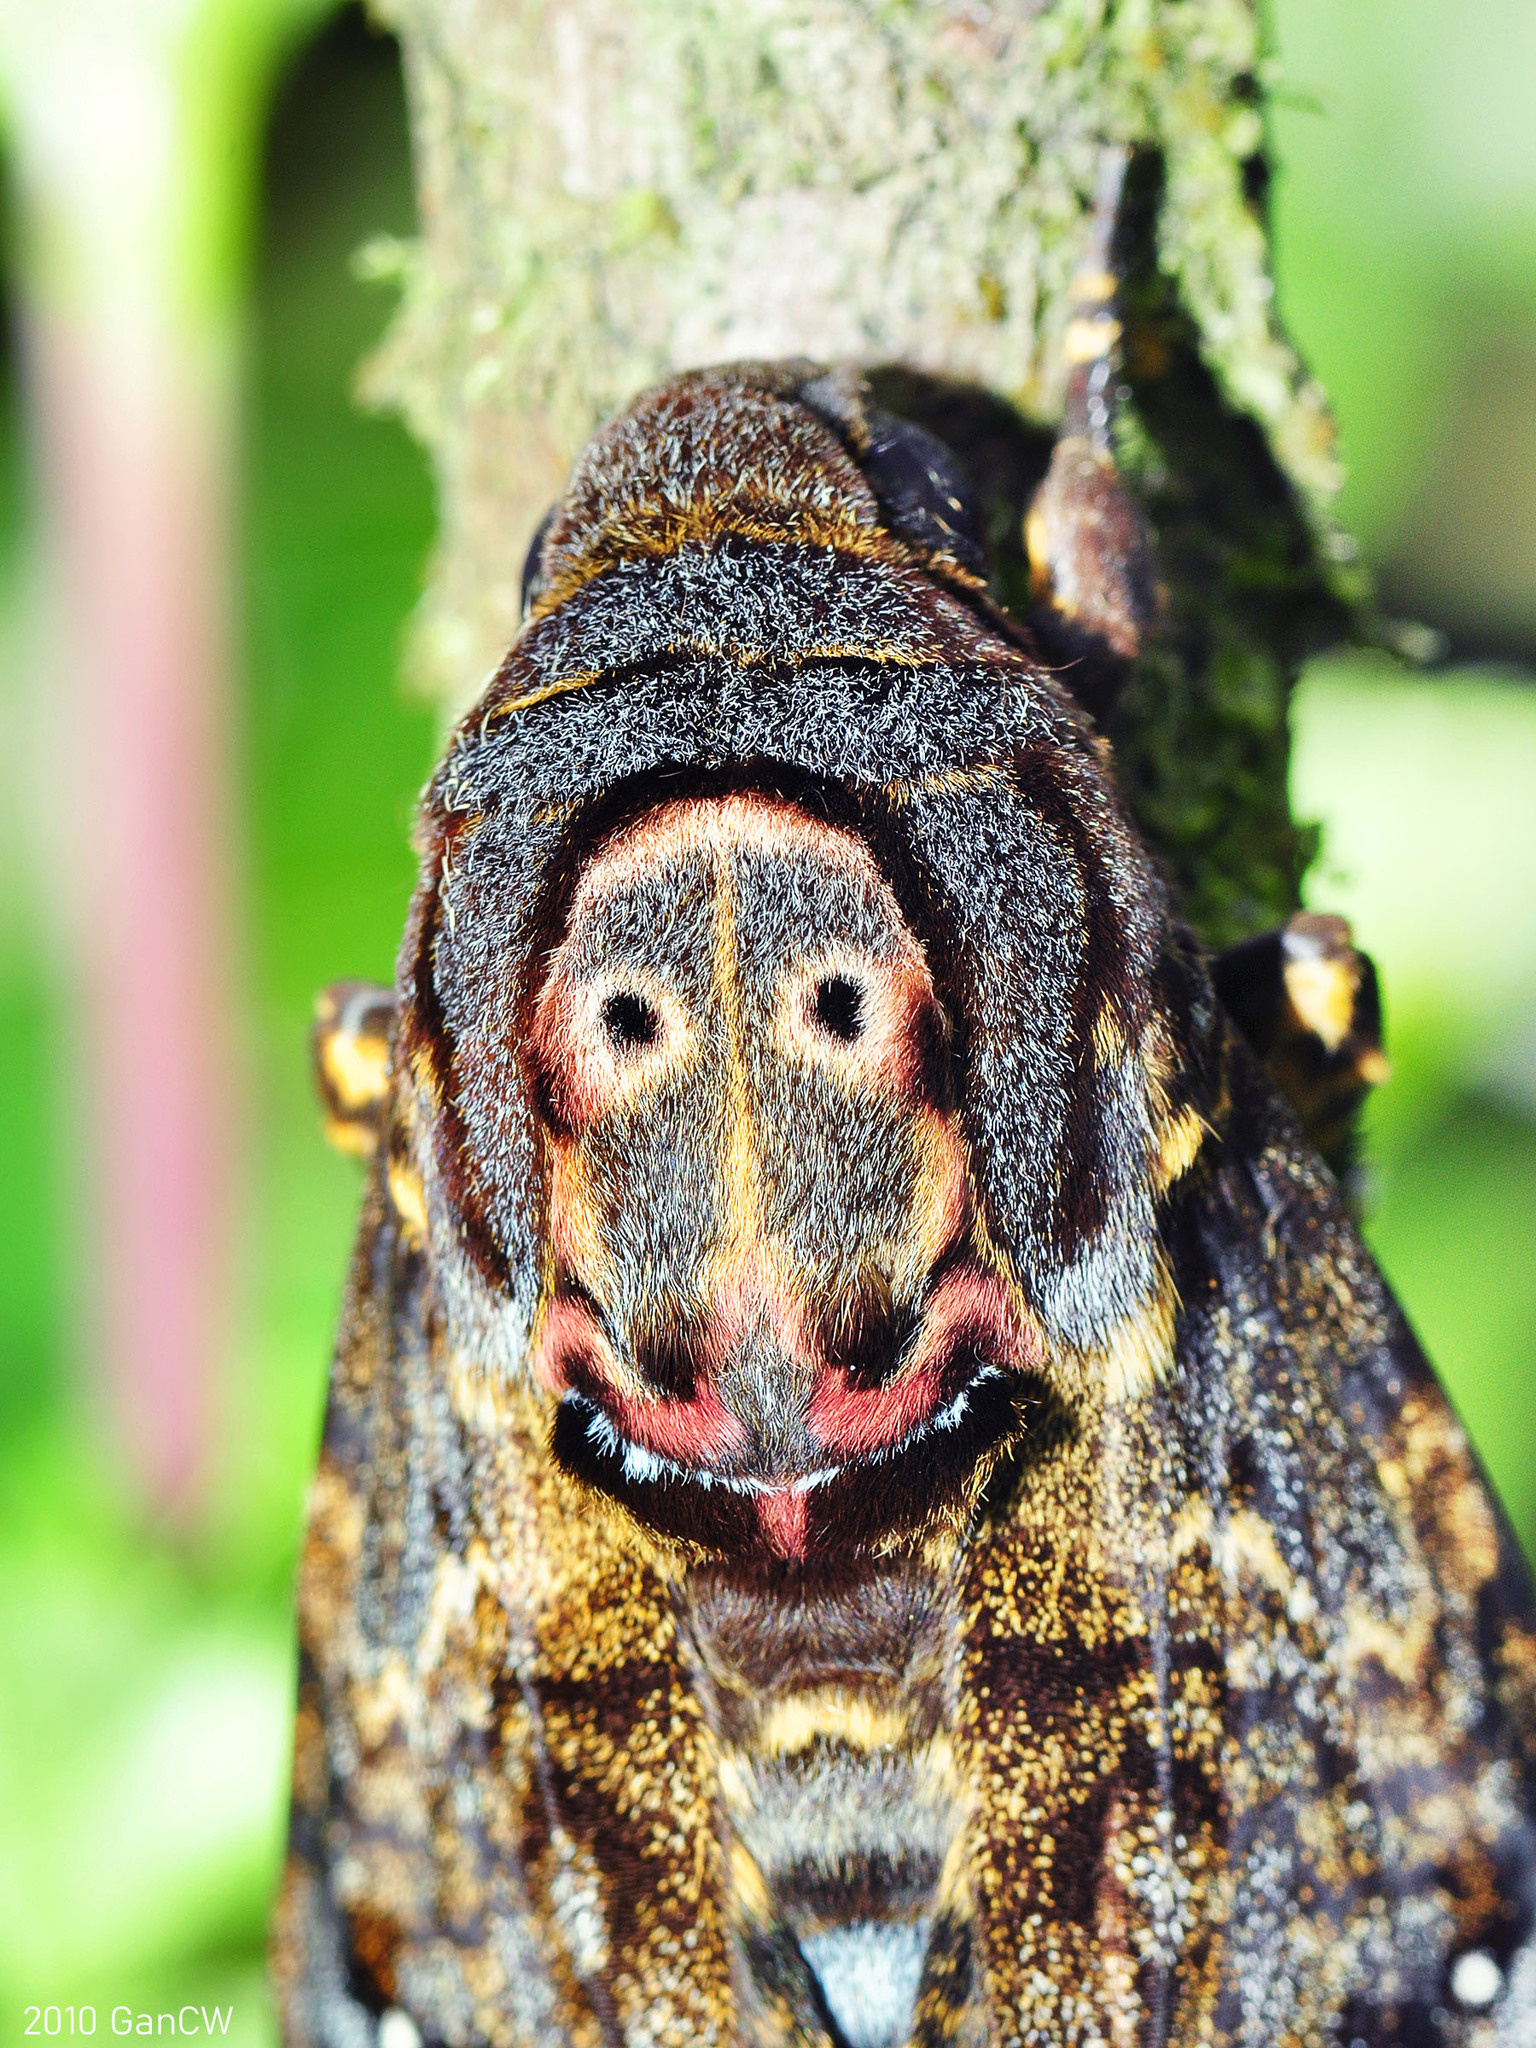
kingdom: Animalia
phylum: Arthropoda
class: Insecta
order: Lepidoptera
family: Sphingidae
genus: Acherontia
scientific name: Acherontia lachesis
